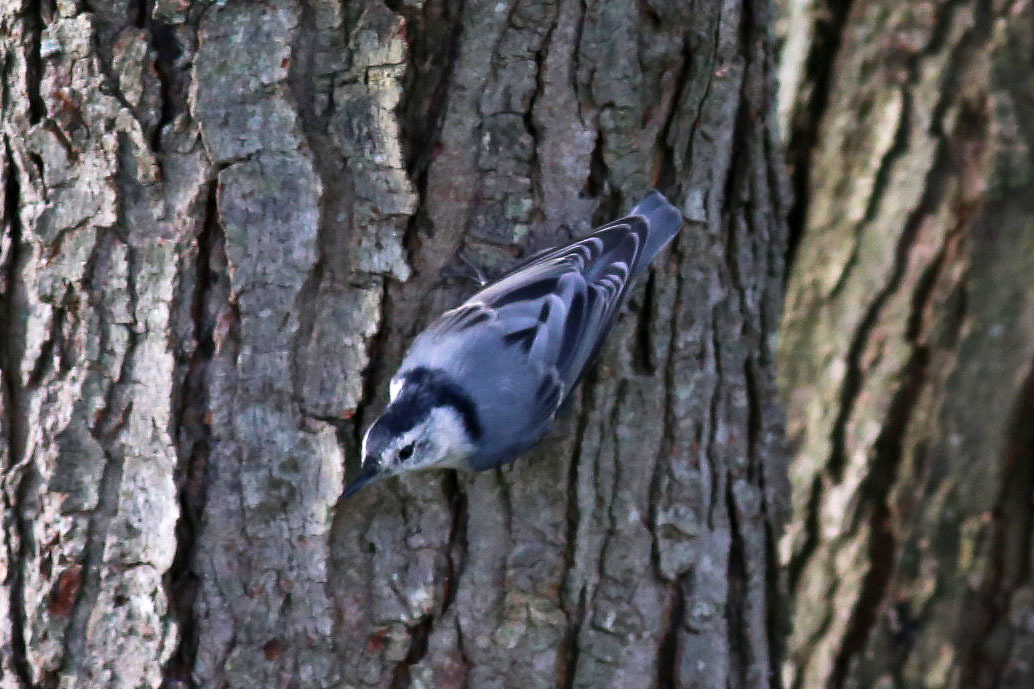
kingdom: Animalia
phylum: Chordata
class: Aves
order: Passeriformes
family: Sittidae
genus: Sitta
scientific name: Sitta carolinensis
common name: White-breasted nuthatch
